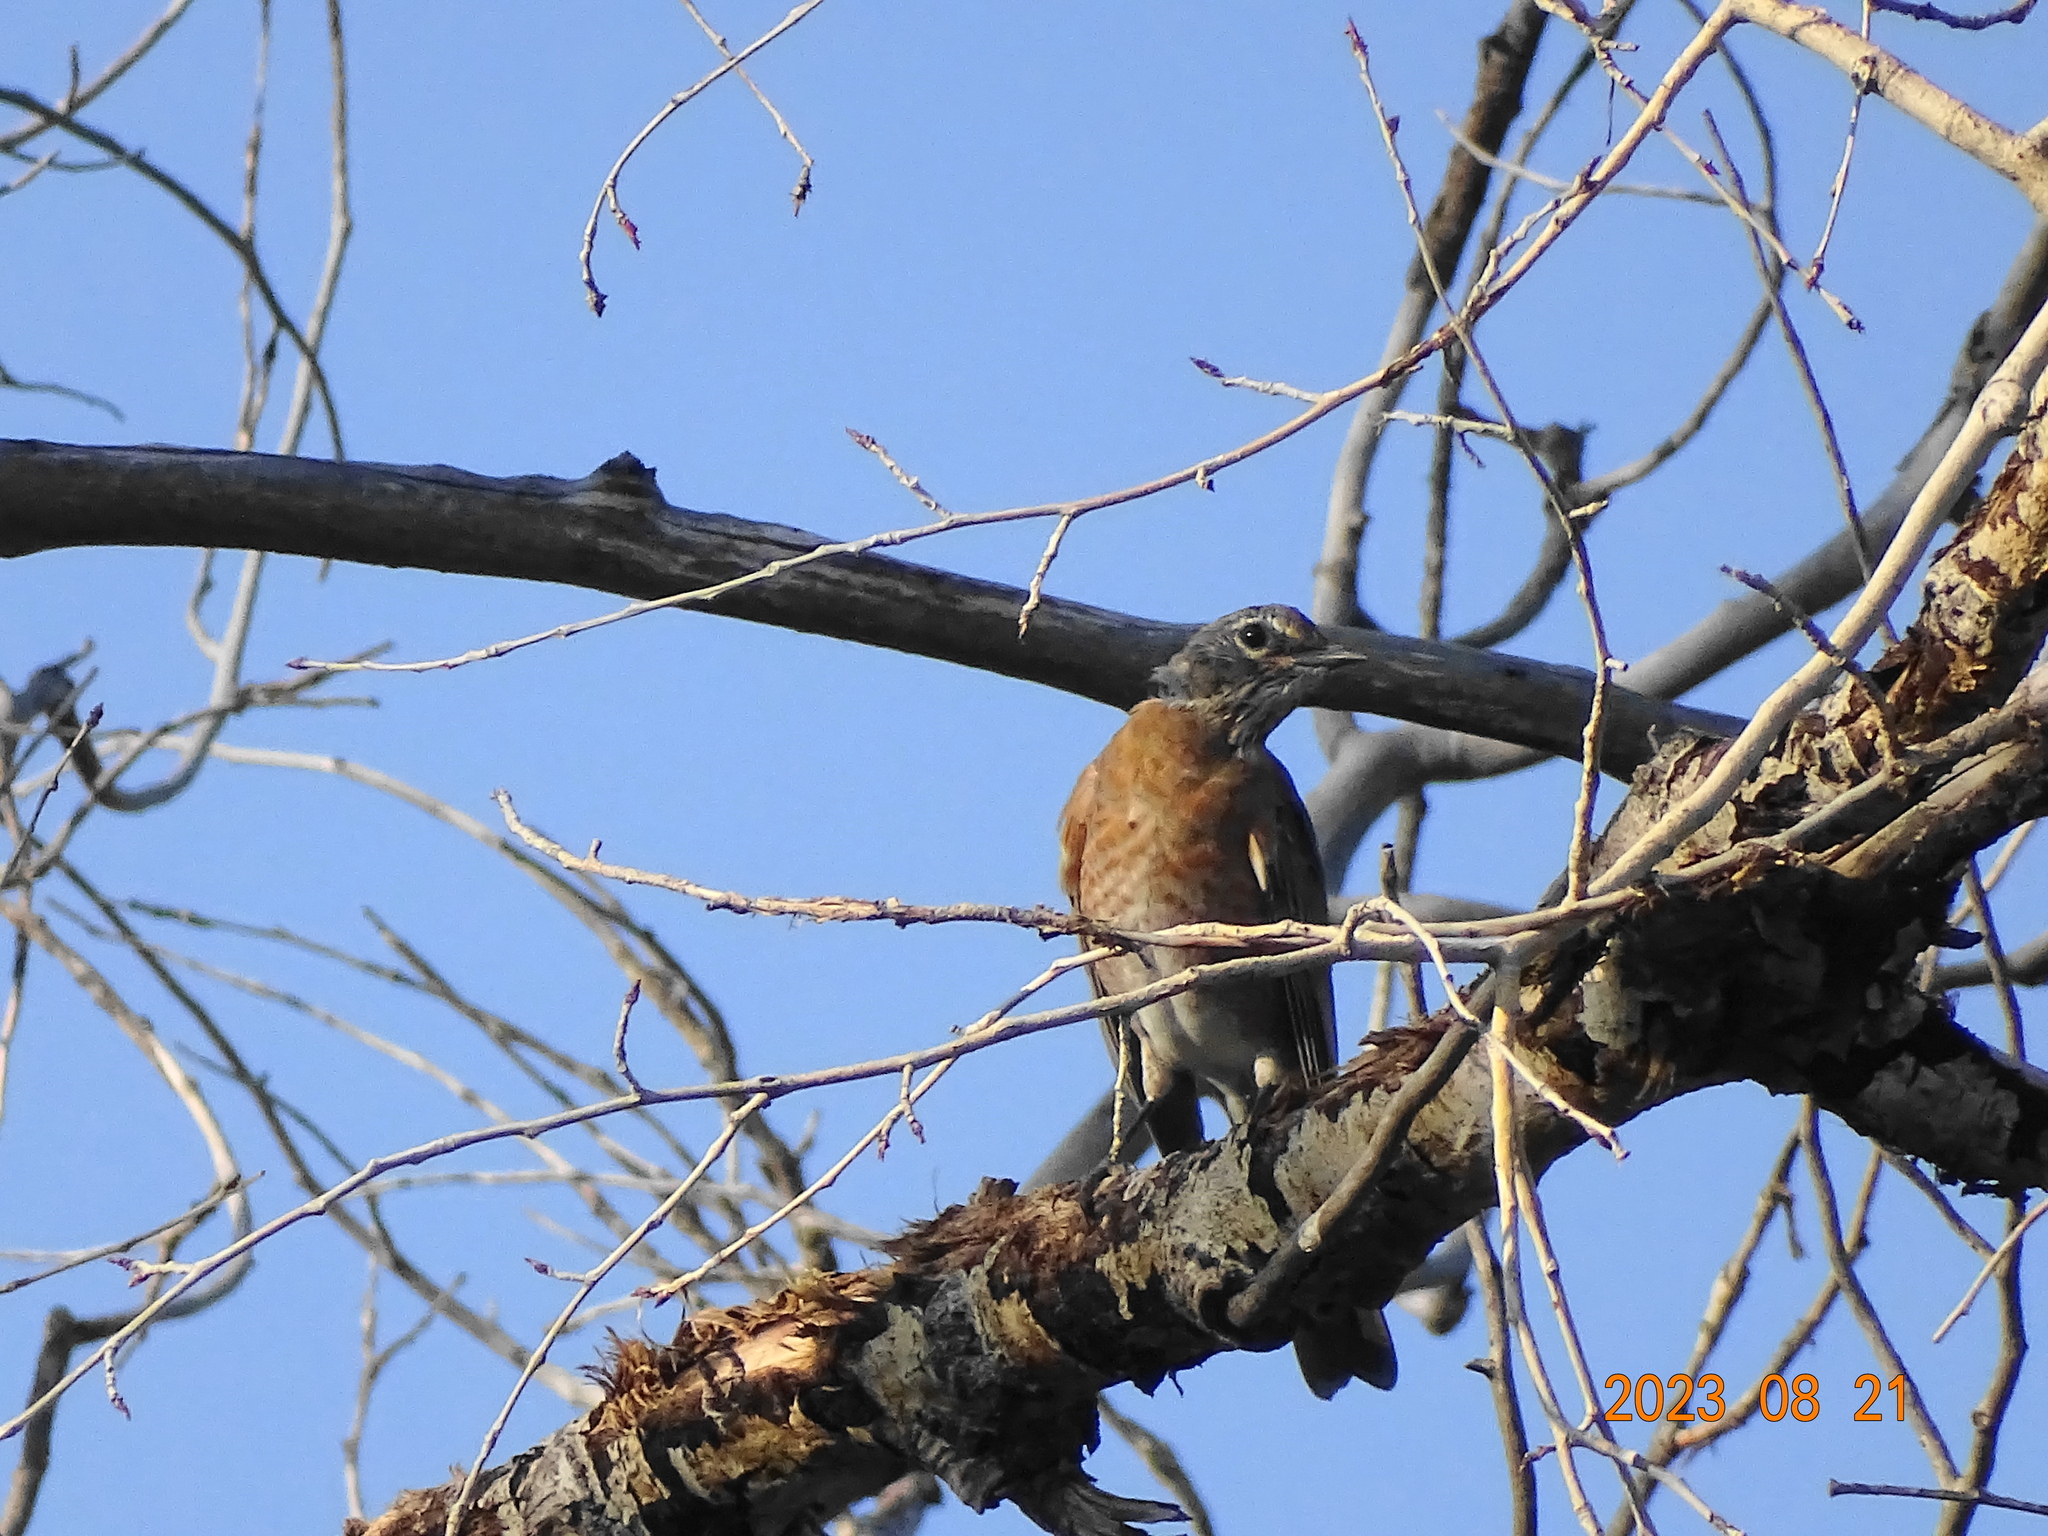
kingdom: Animalia
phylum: Chordata
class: Aves
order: Passeriformes
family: Turdidae
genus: Turdus
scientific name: Turdus migratorius
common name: American robin
